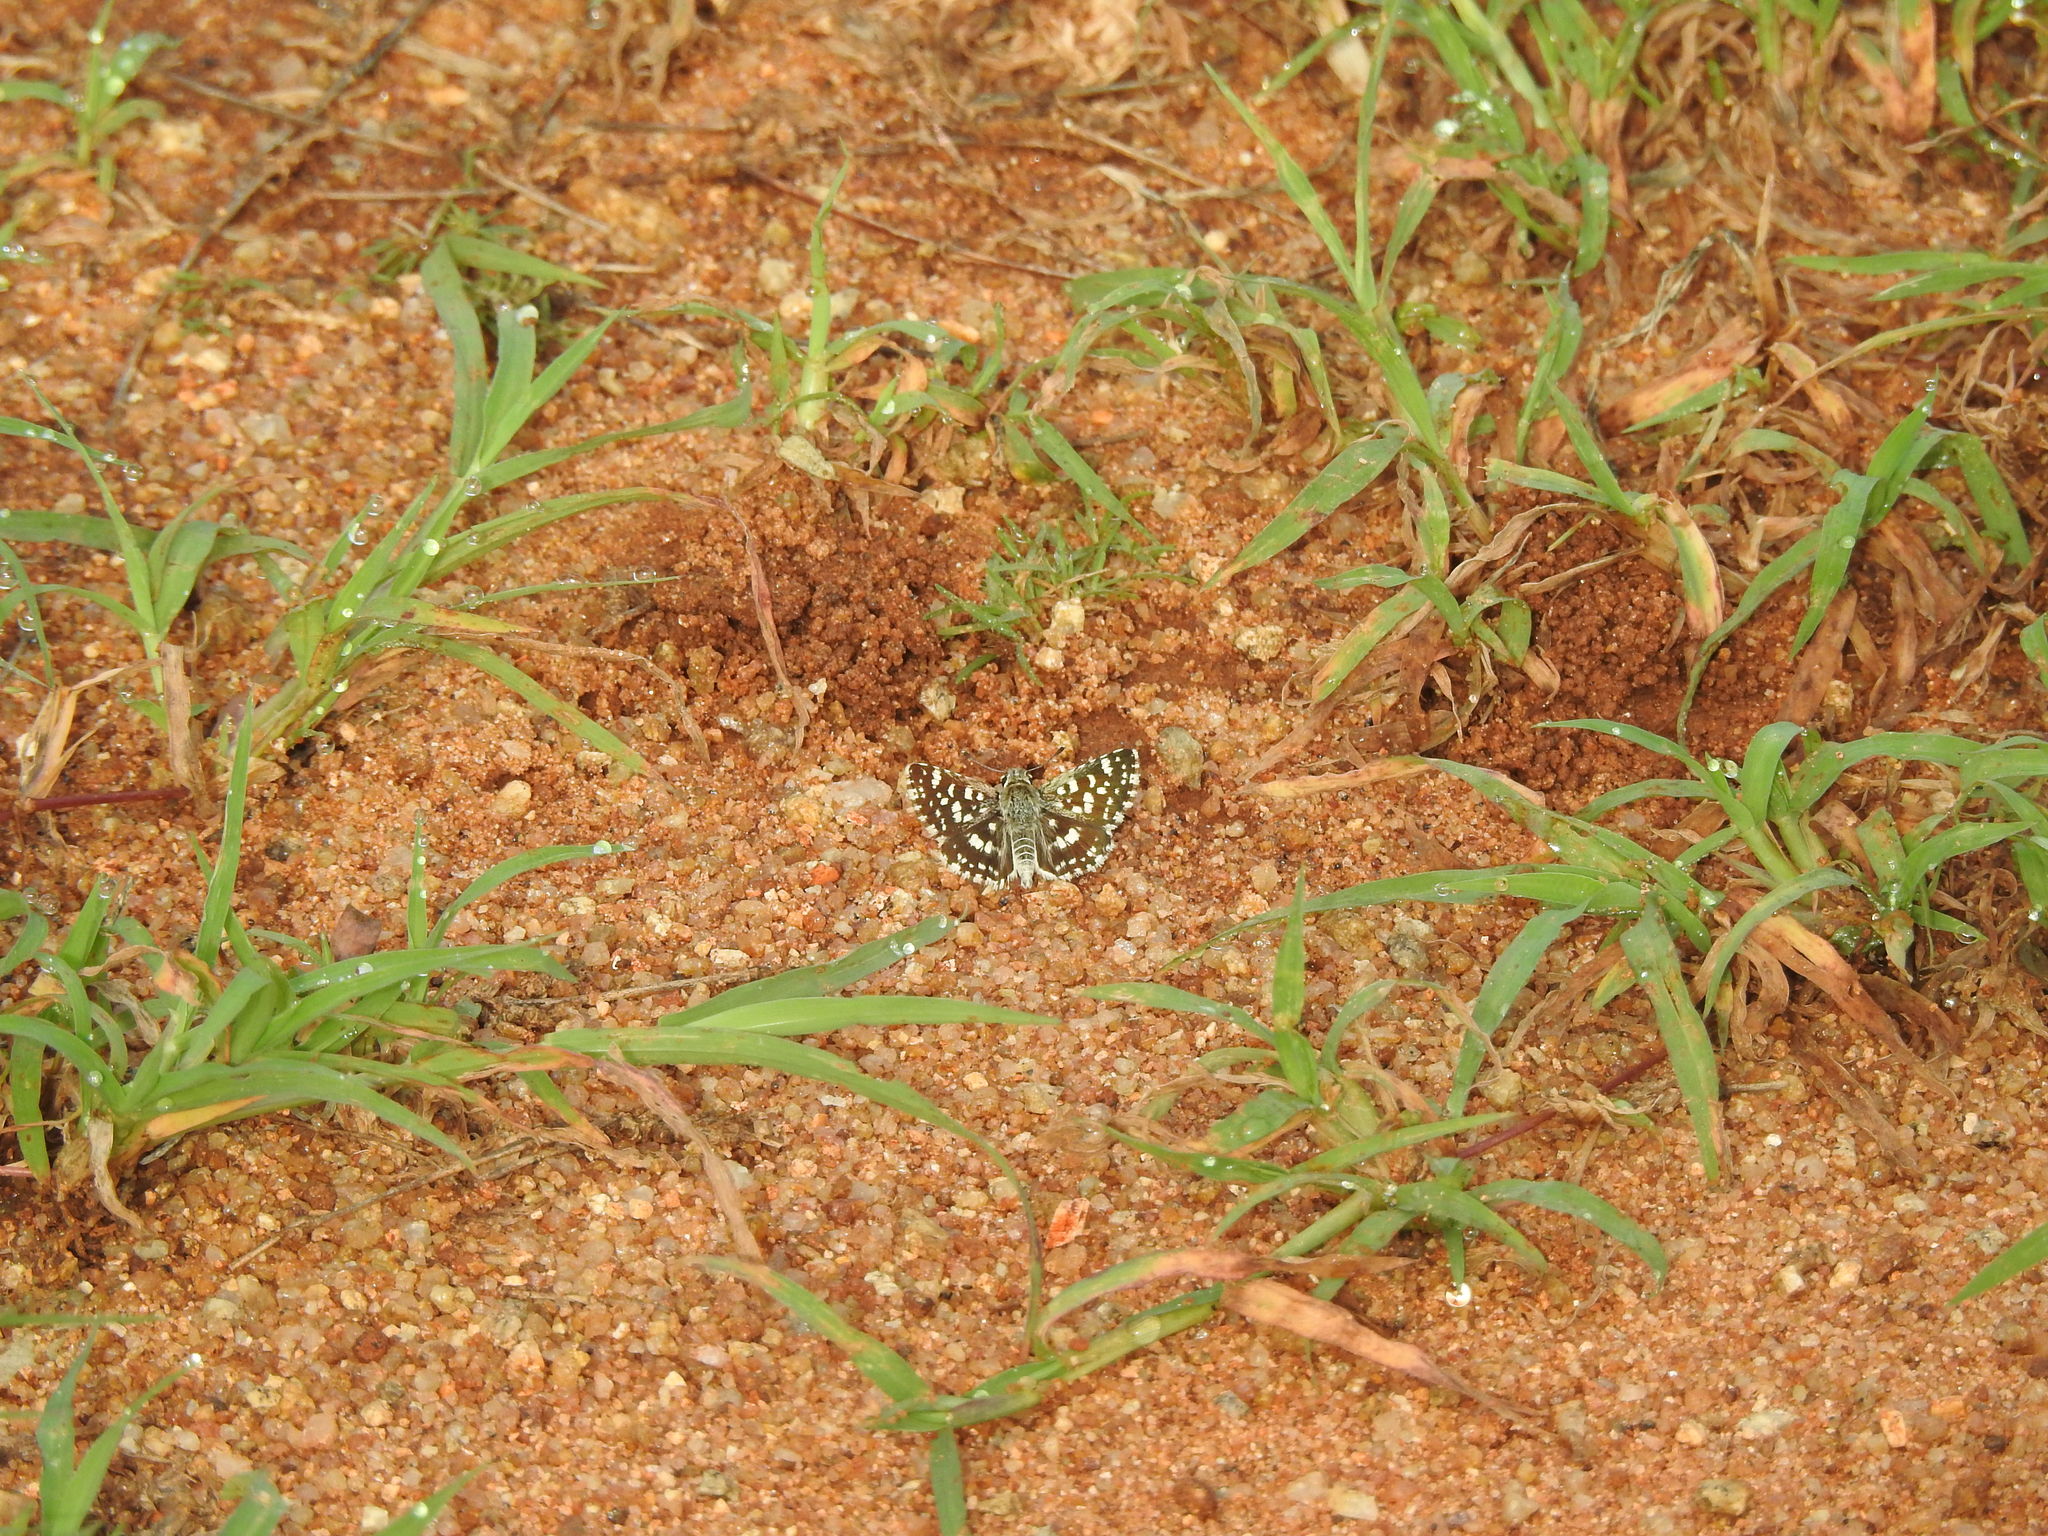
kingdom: Animalia
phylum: Arthropoda
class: Insecta
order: Lepidoptera
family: Hesperiidae
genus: Spialia
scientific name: Spialia galba
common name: Indian skipper
